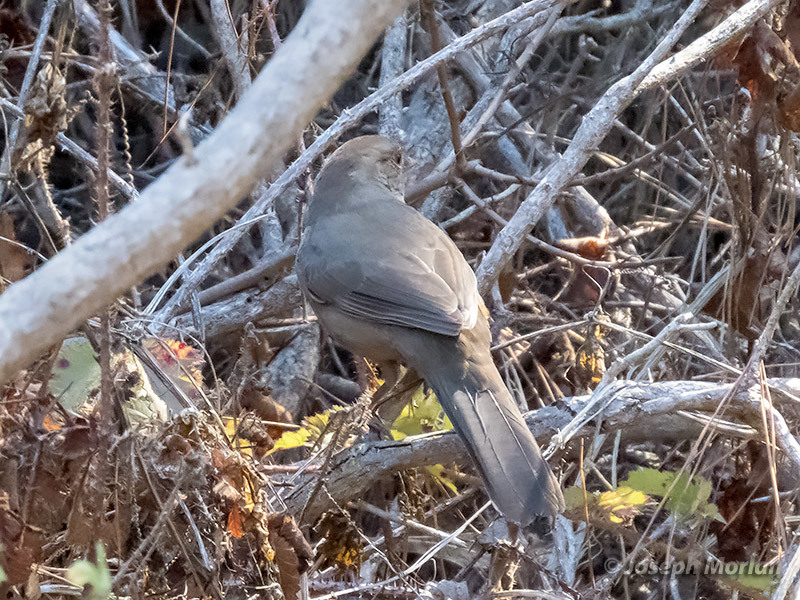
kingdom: Animalia
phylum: Chordata
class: Aves
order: Passeriformes
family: Passerellidae
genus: Melozone
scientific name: Melozone crissalis
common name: California towhee
